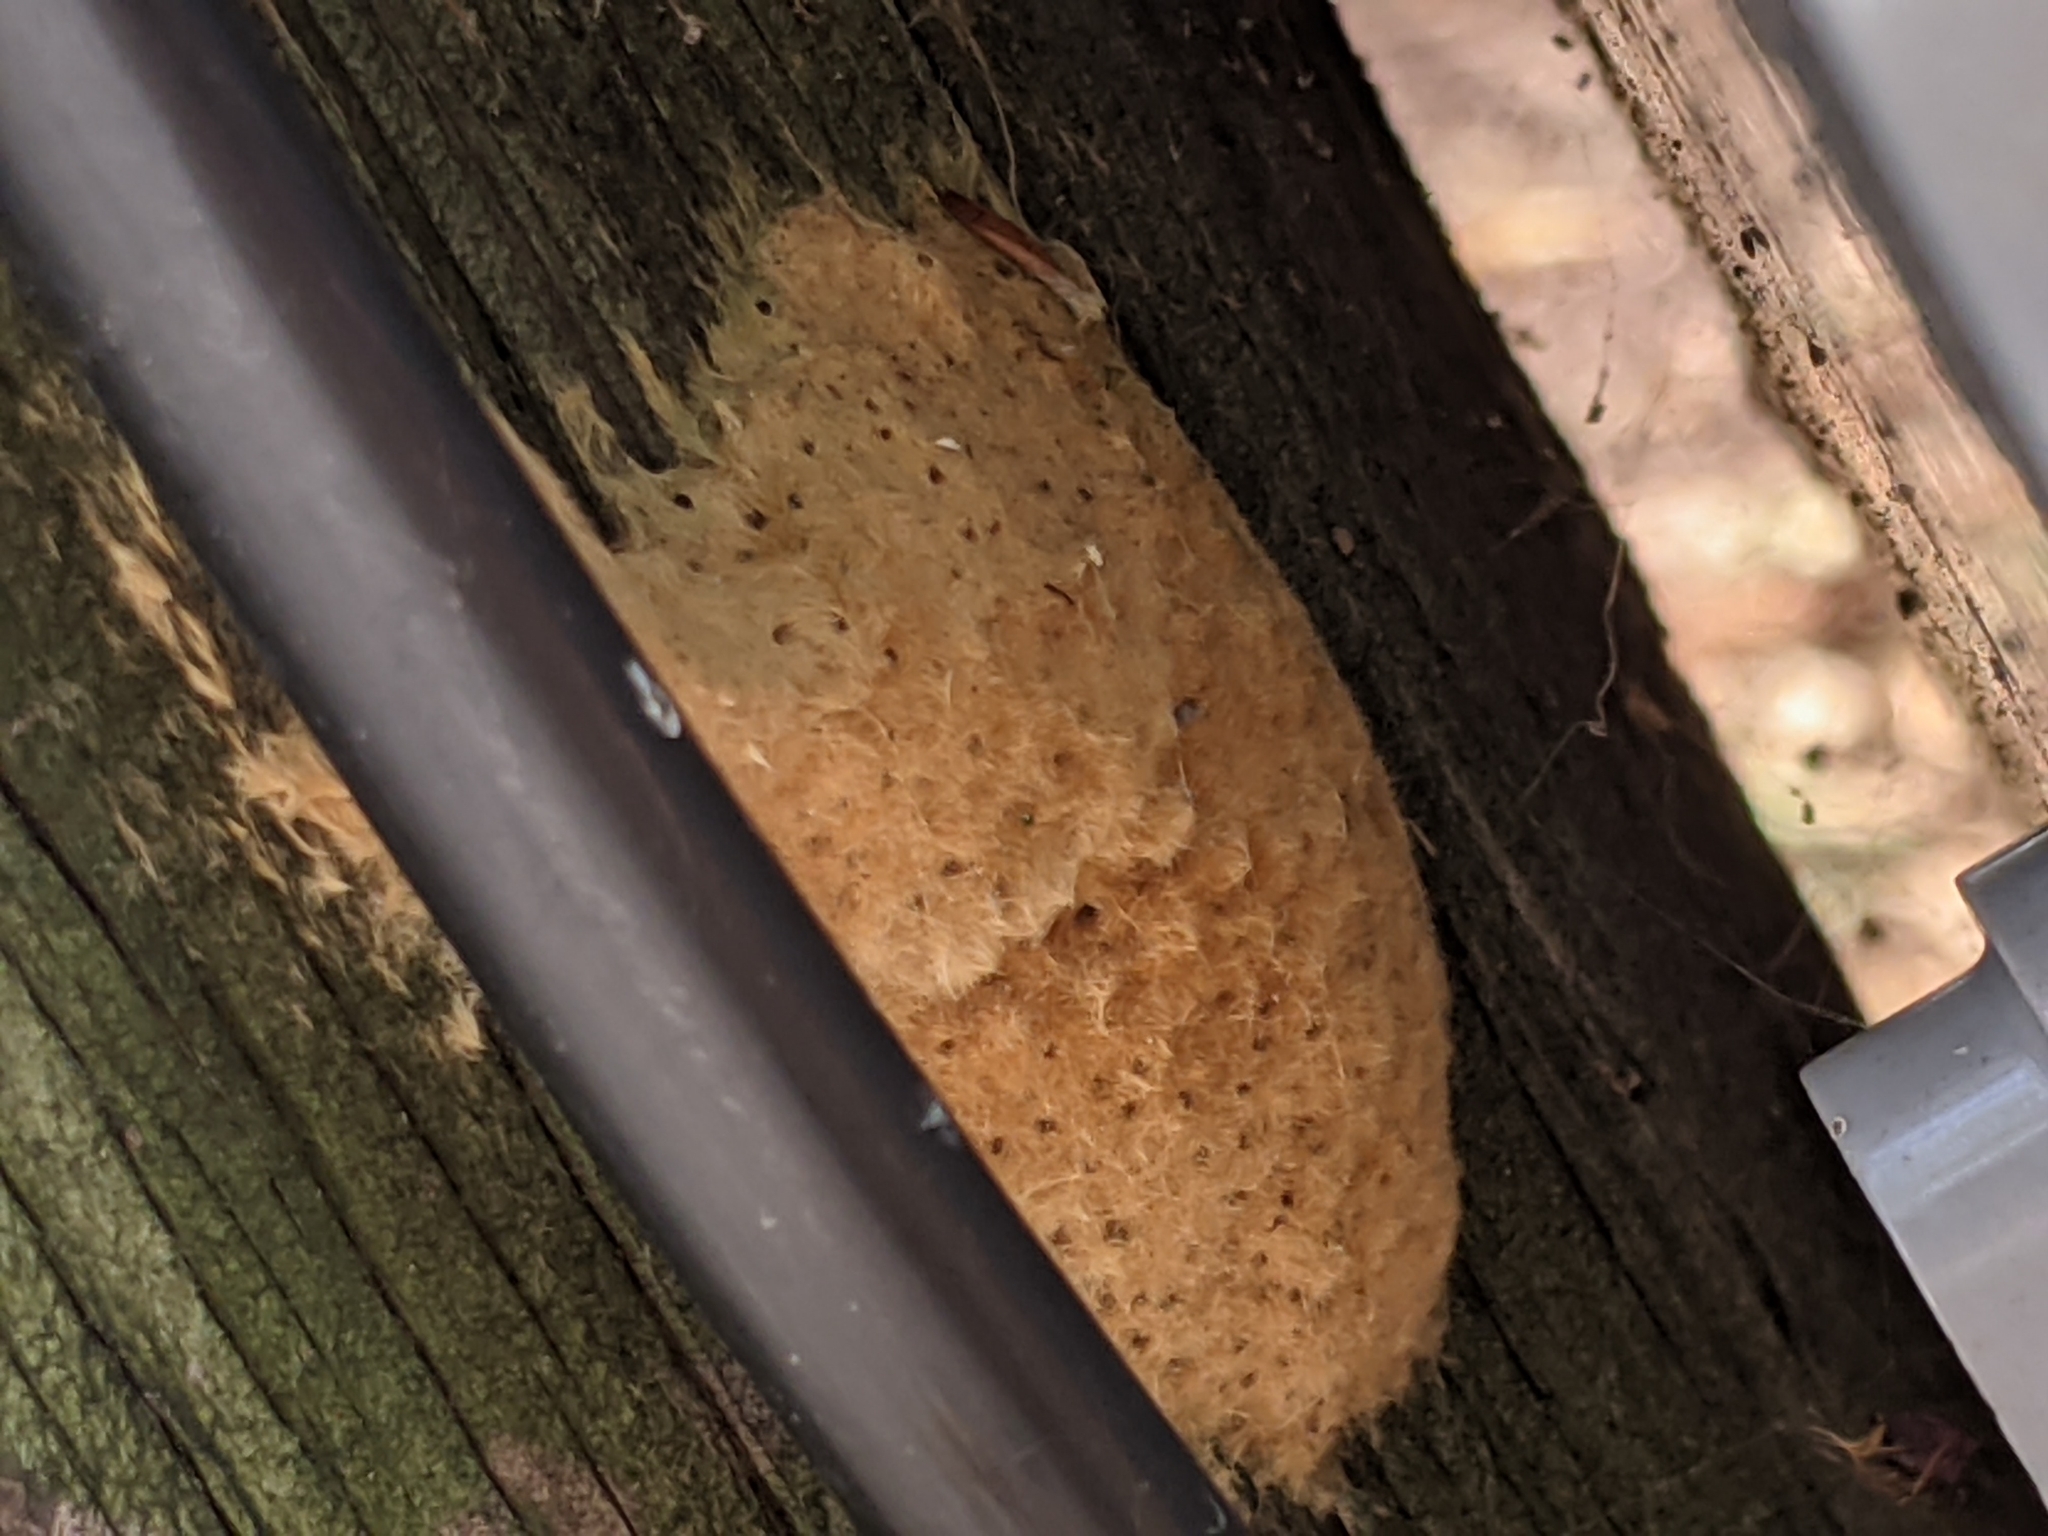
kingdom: Animalia
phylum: Arthropoda
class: Insecta
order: Lepidoptera
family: Erebidae
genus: Lymantria
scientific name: Lymantria dispar
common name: Gypsy moth
